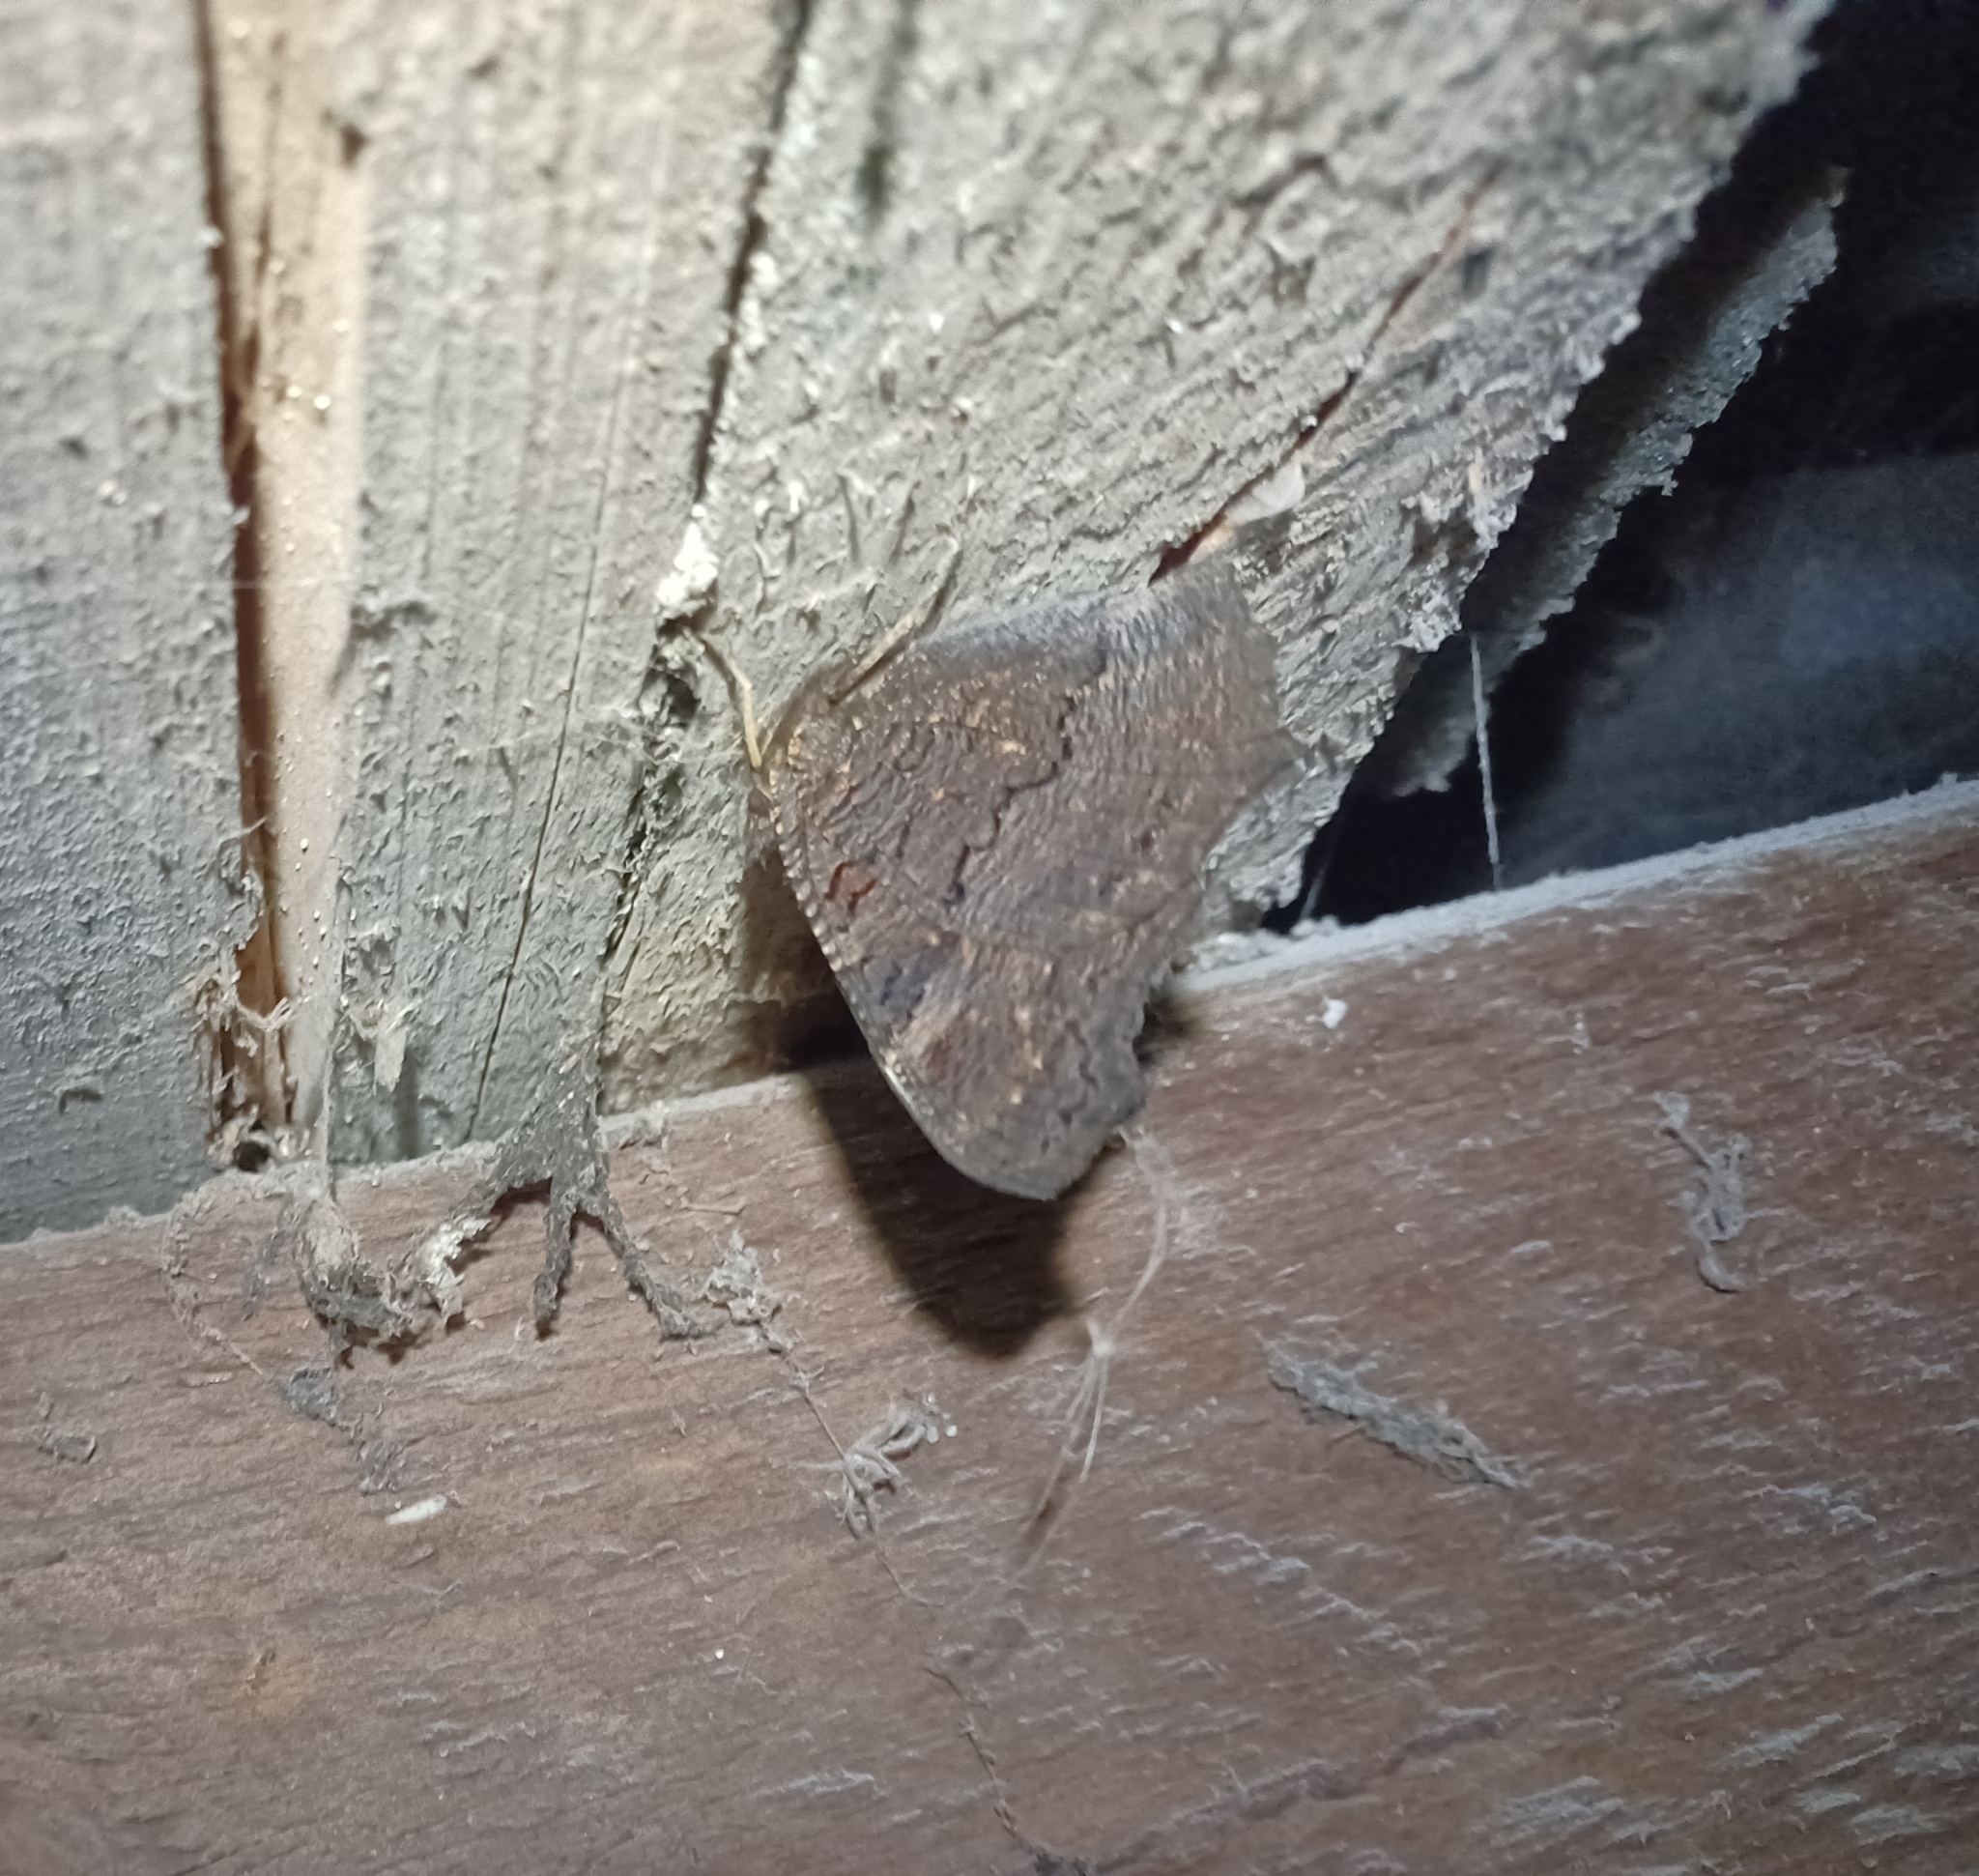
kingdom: Animalia
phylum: Arthropoda
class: Insecta
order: Lepidoptera
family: Nymphalidae
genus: Aglais
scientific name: Aglais io
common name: Peacock
